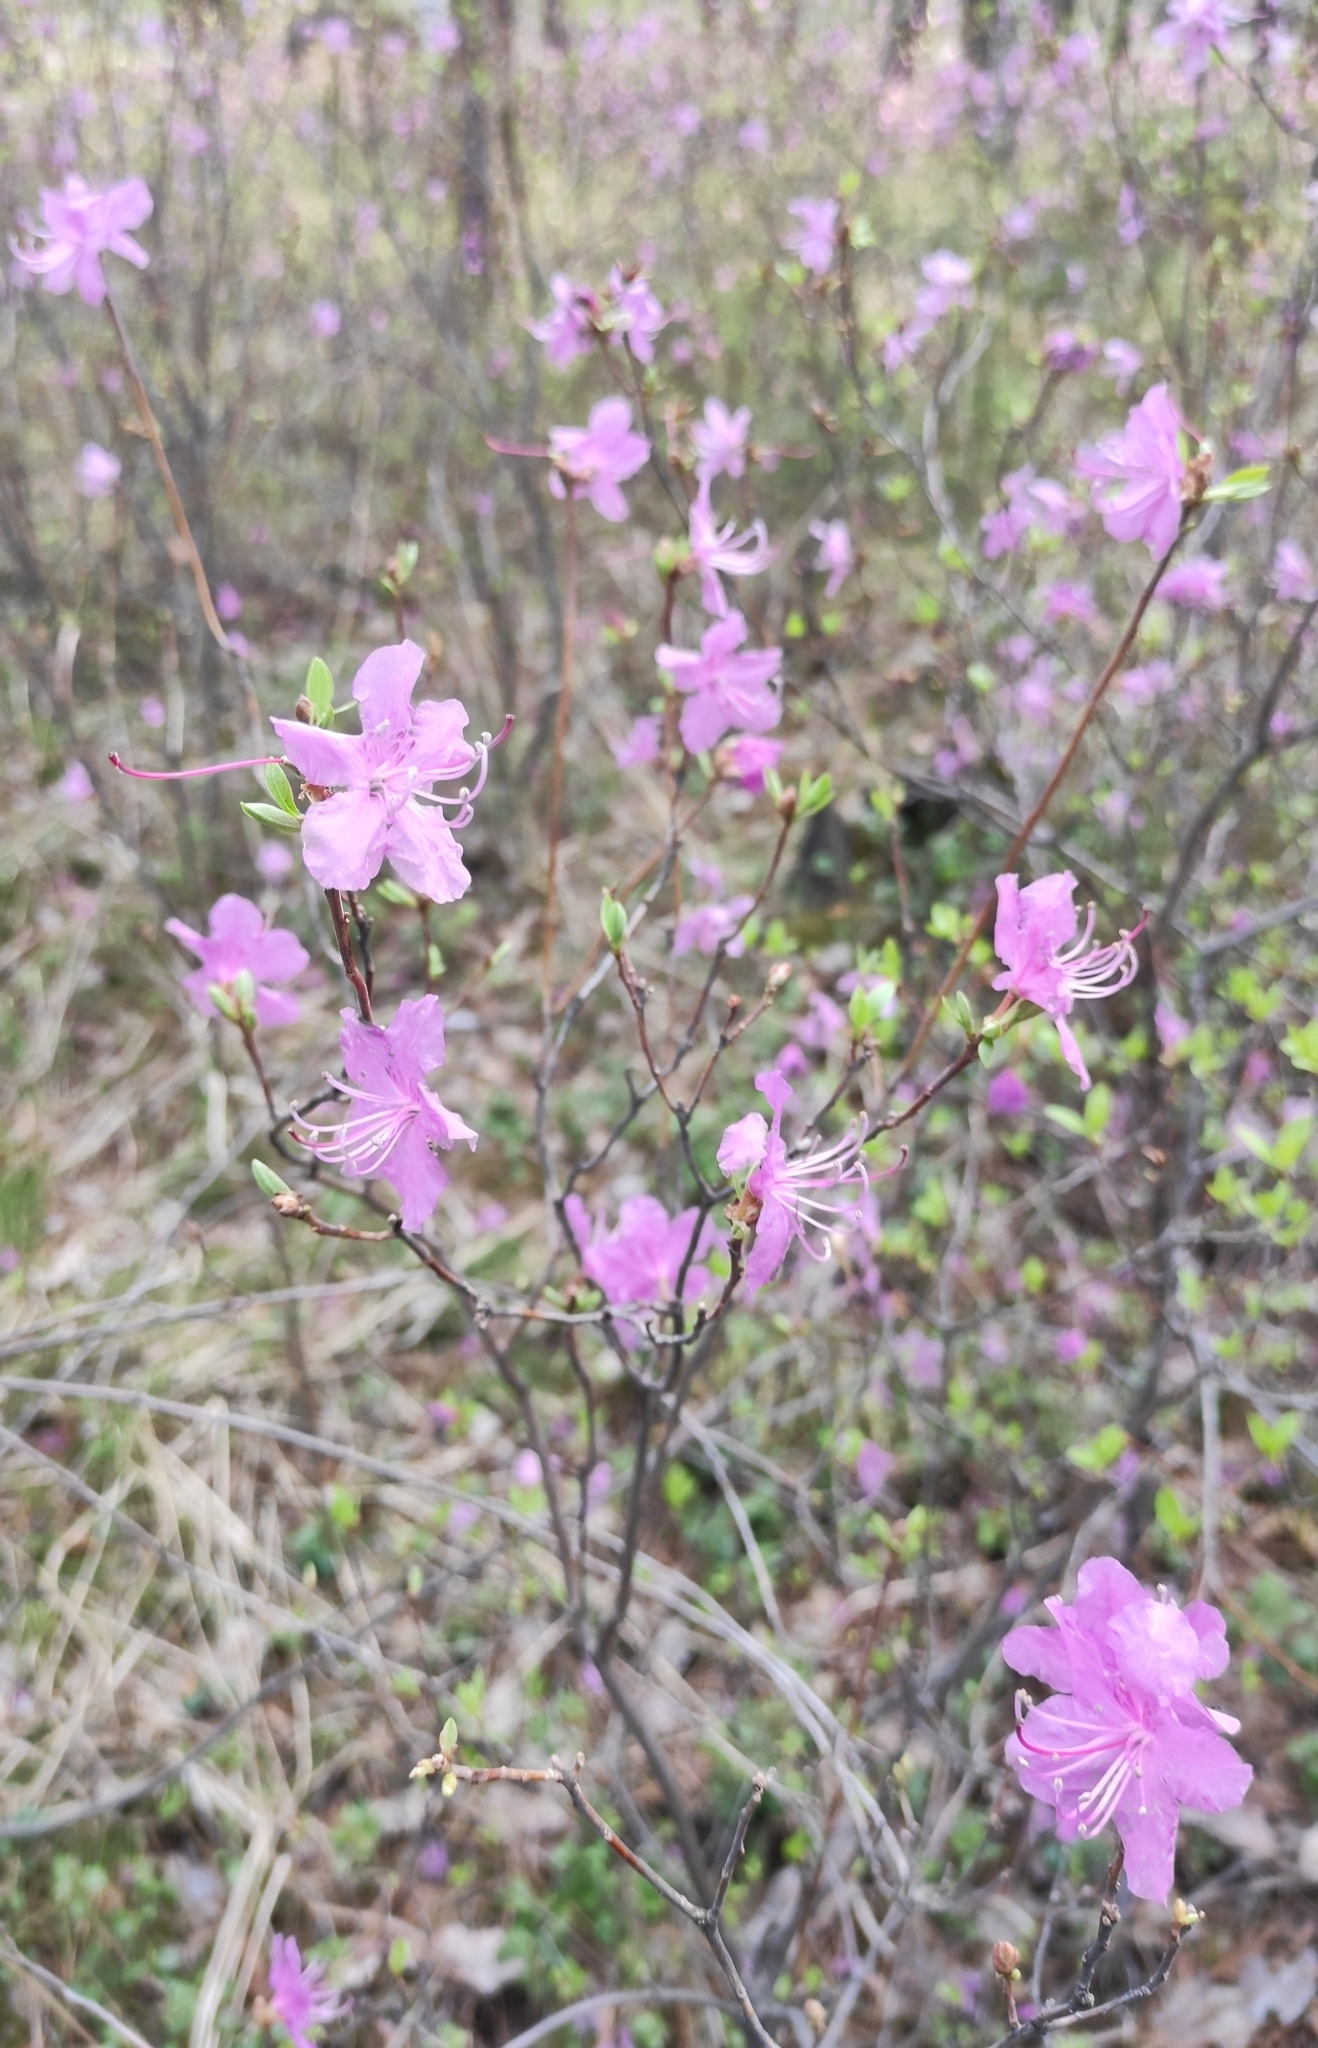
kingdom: Plantae
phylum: Tracheophyta
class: Magnoliopsida
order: Ericales
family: Ericaceae
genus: Rhododendron
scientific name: Rhododendron dauricum
